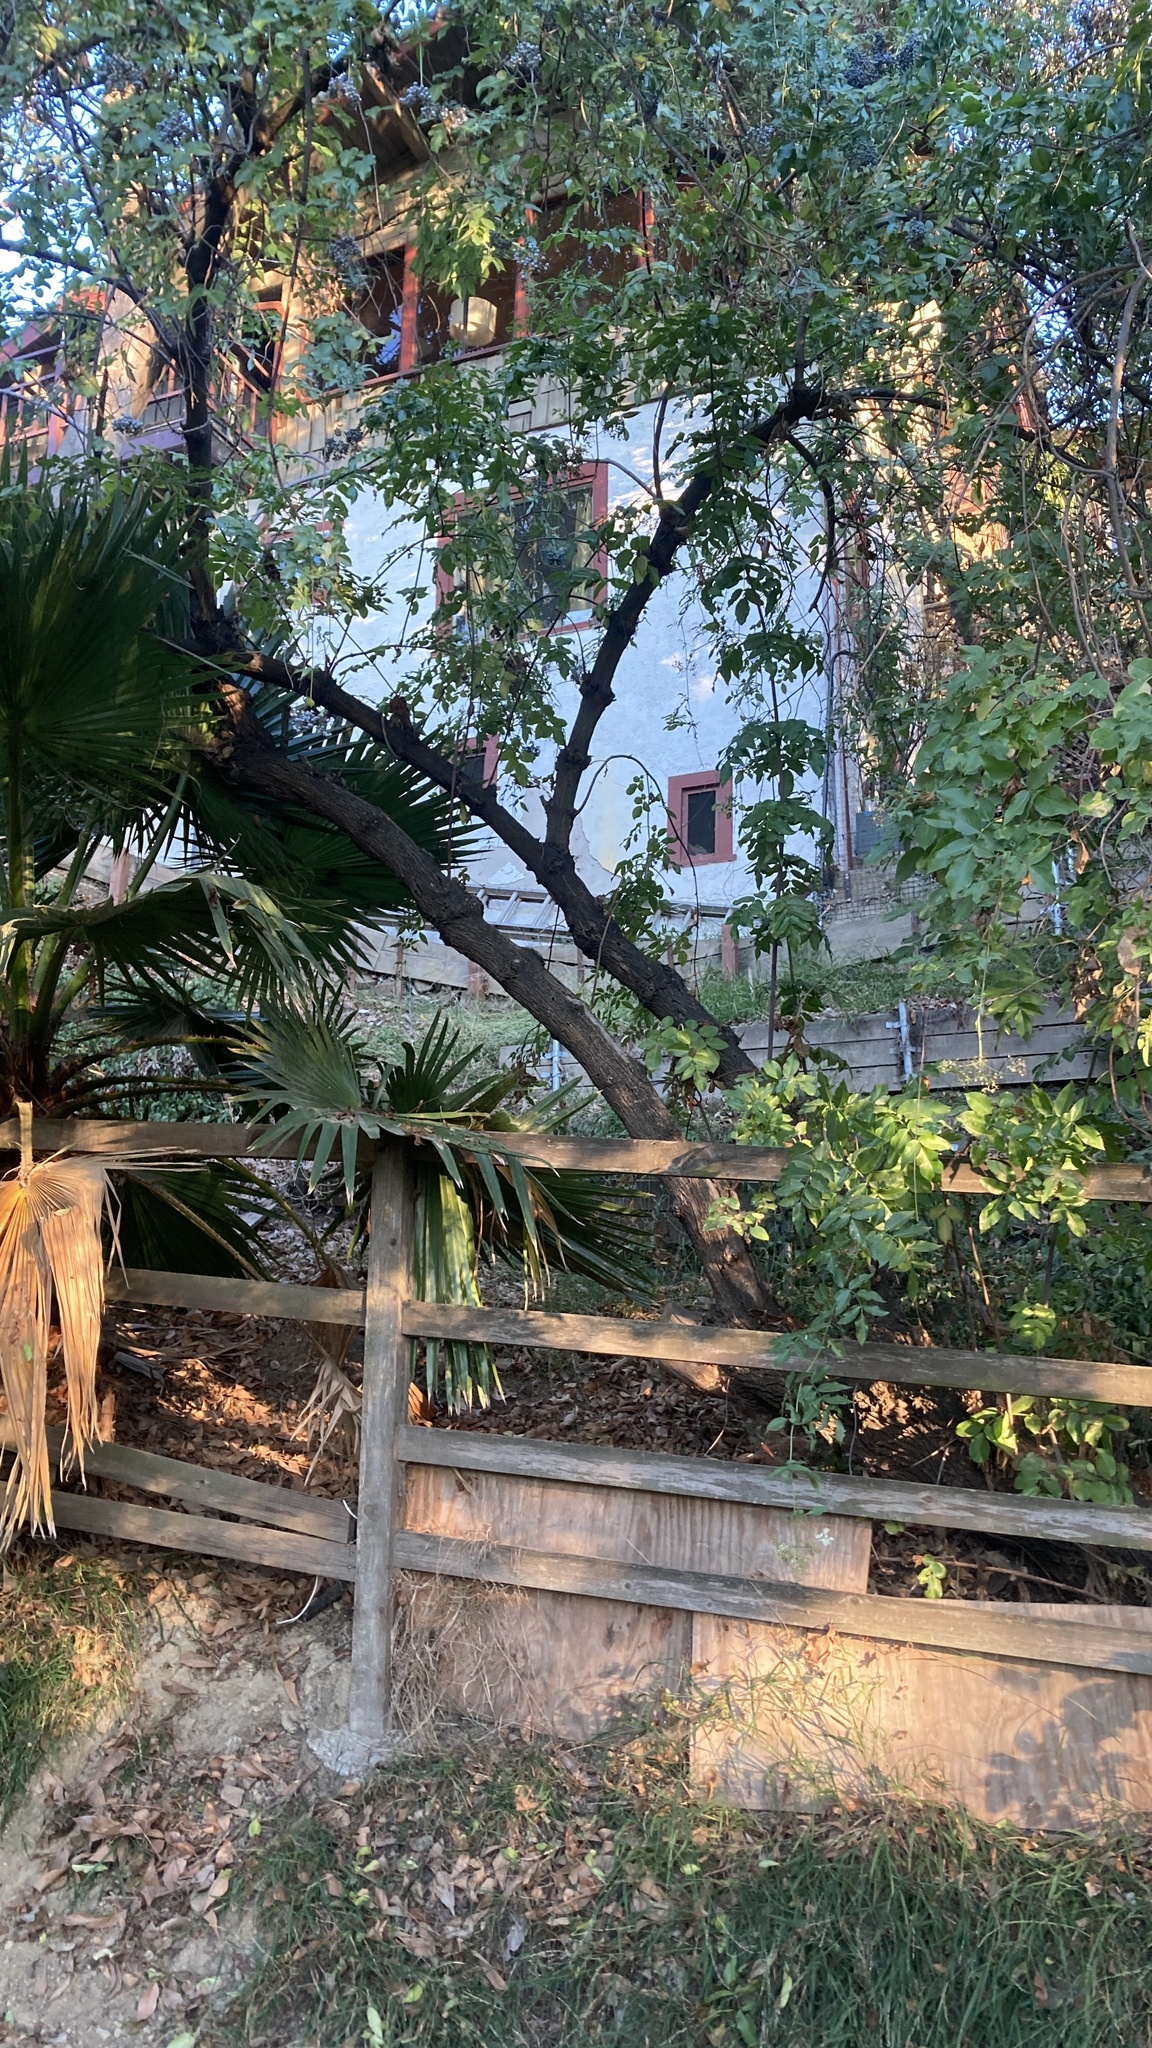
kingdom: Plantae
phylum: Tracheophyta
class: Magnoliopsida
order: Dipsacales
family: Viburnaceae
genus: Sambucus
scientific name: Sambucus cerulea
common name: Blue elder
